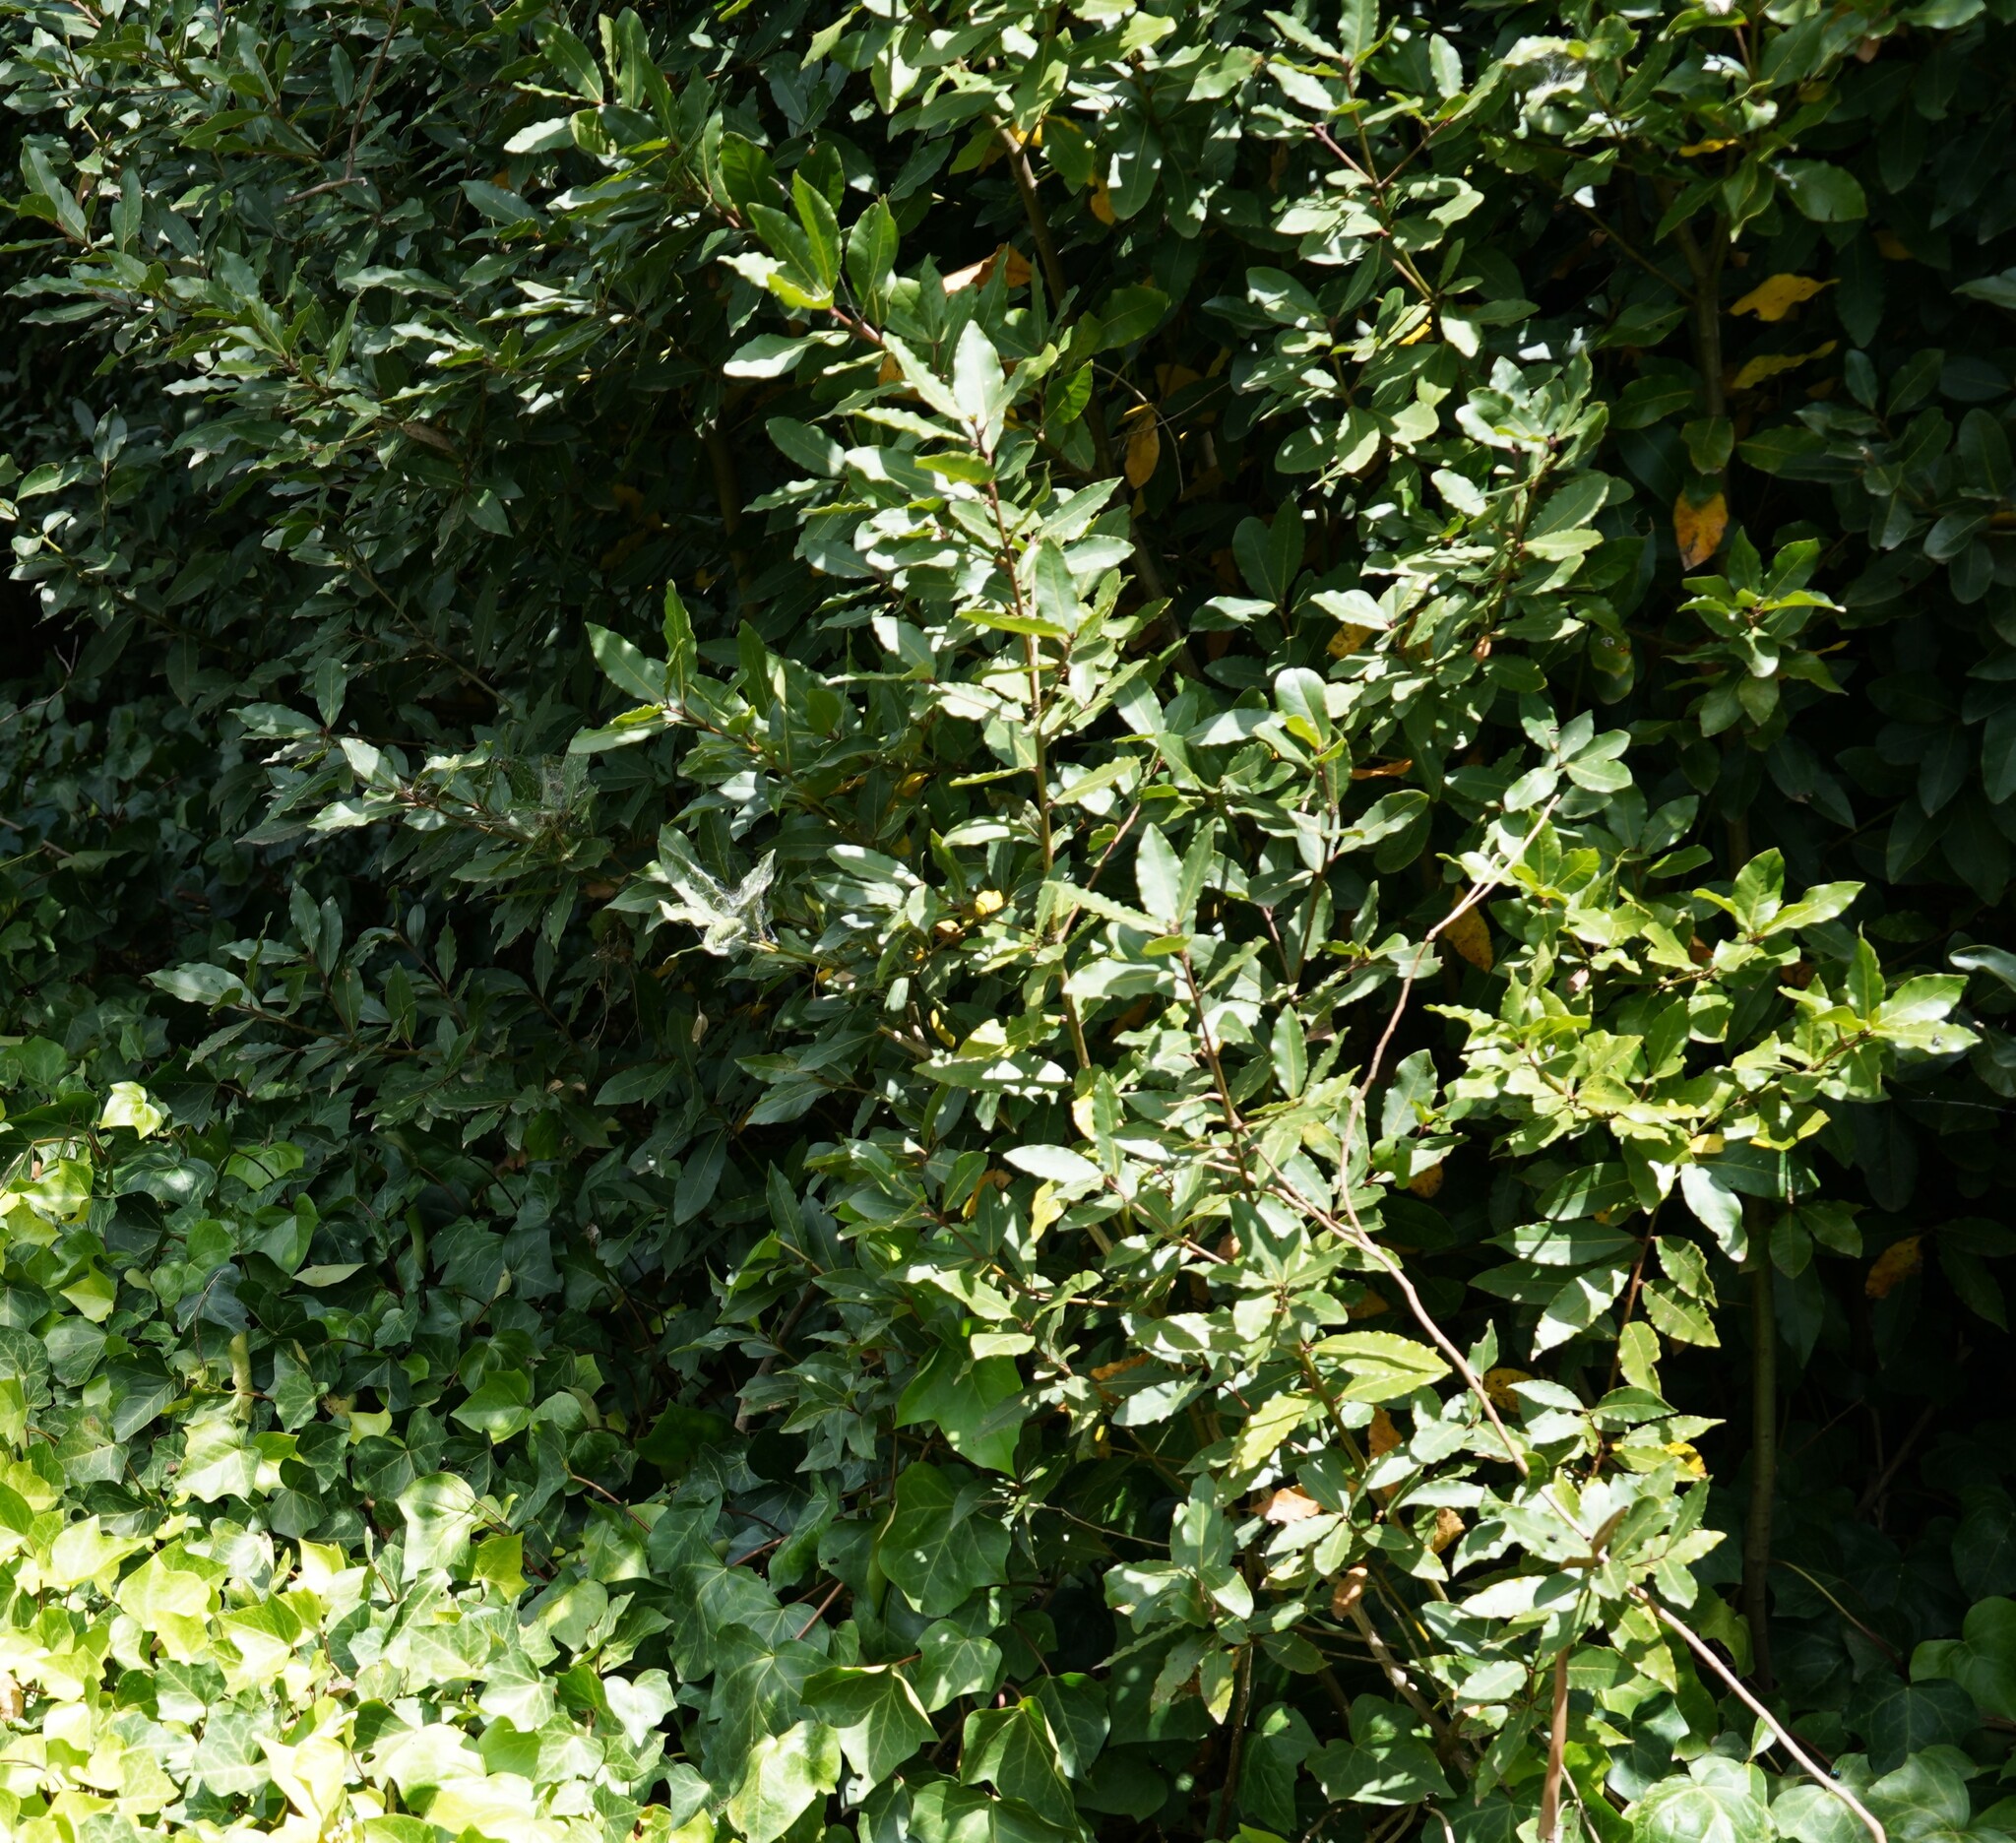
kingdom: Plantae
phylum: Tracheophyta
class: Magnoliopsida
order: Laurales
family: Lauraceae
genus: Laurus
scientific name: Laurus nobilis
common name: Bay
